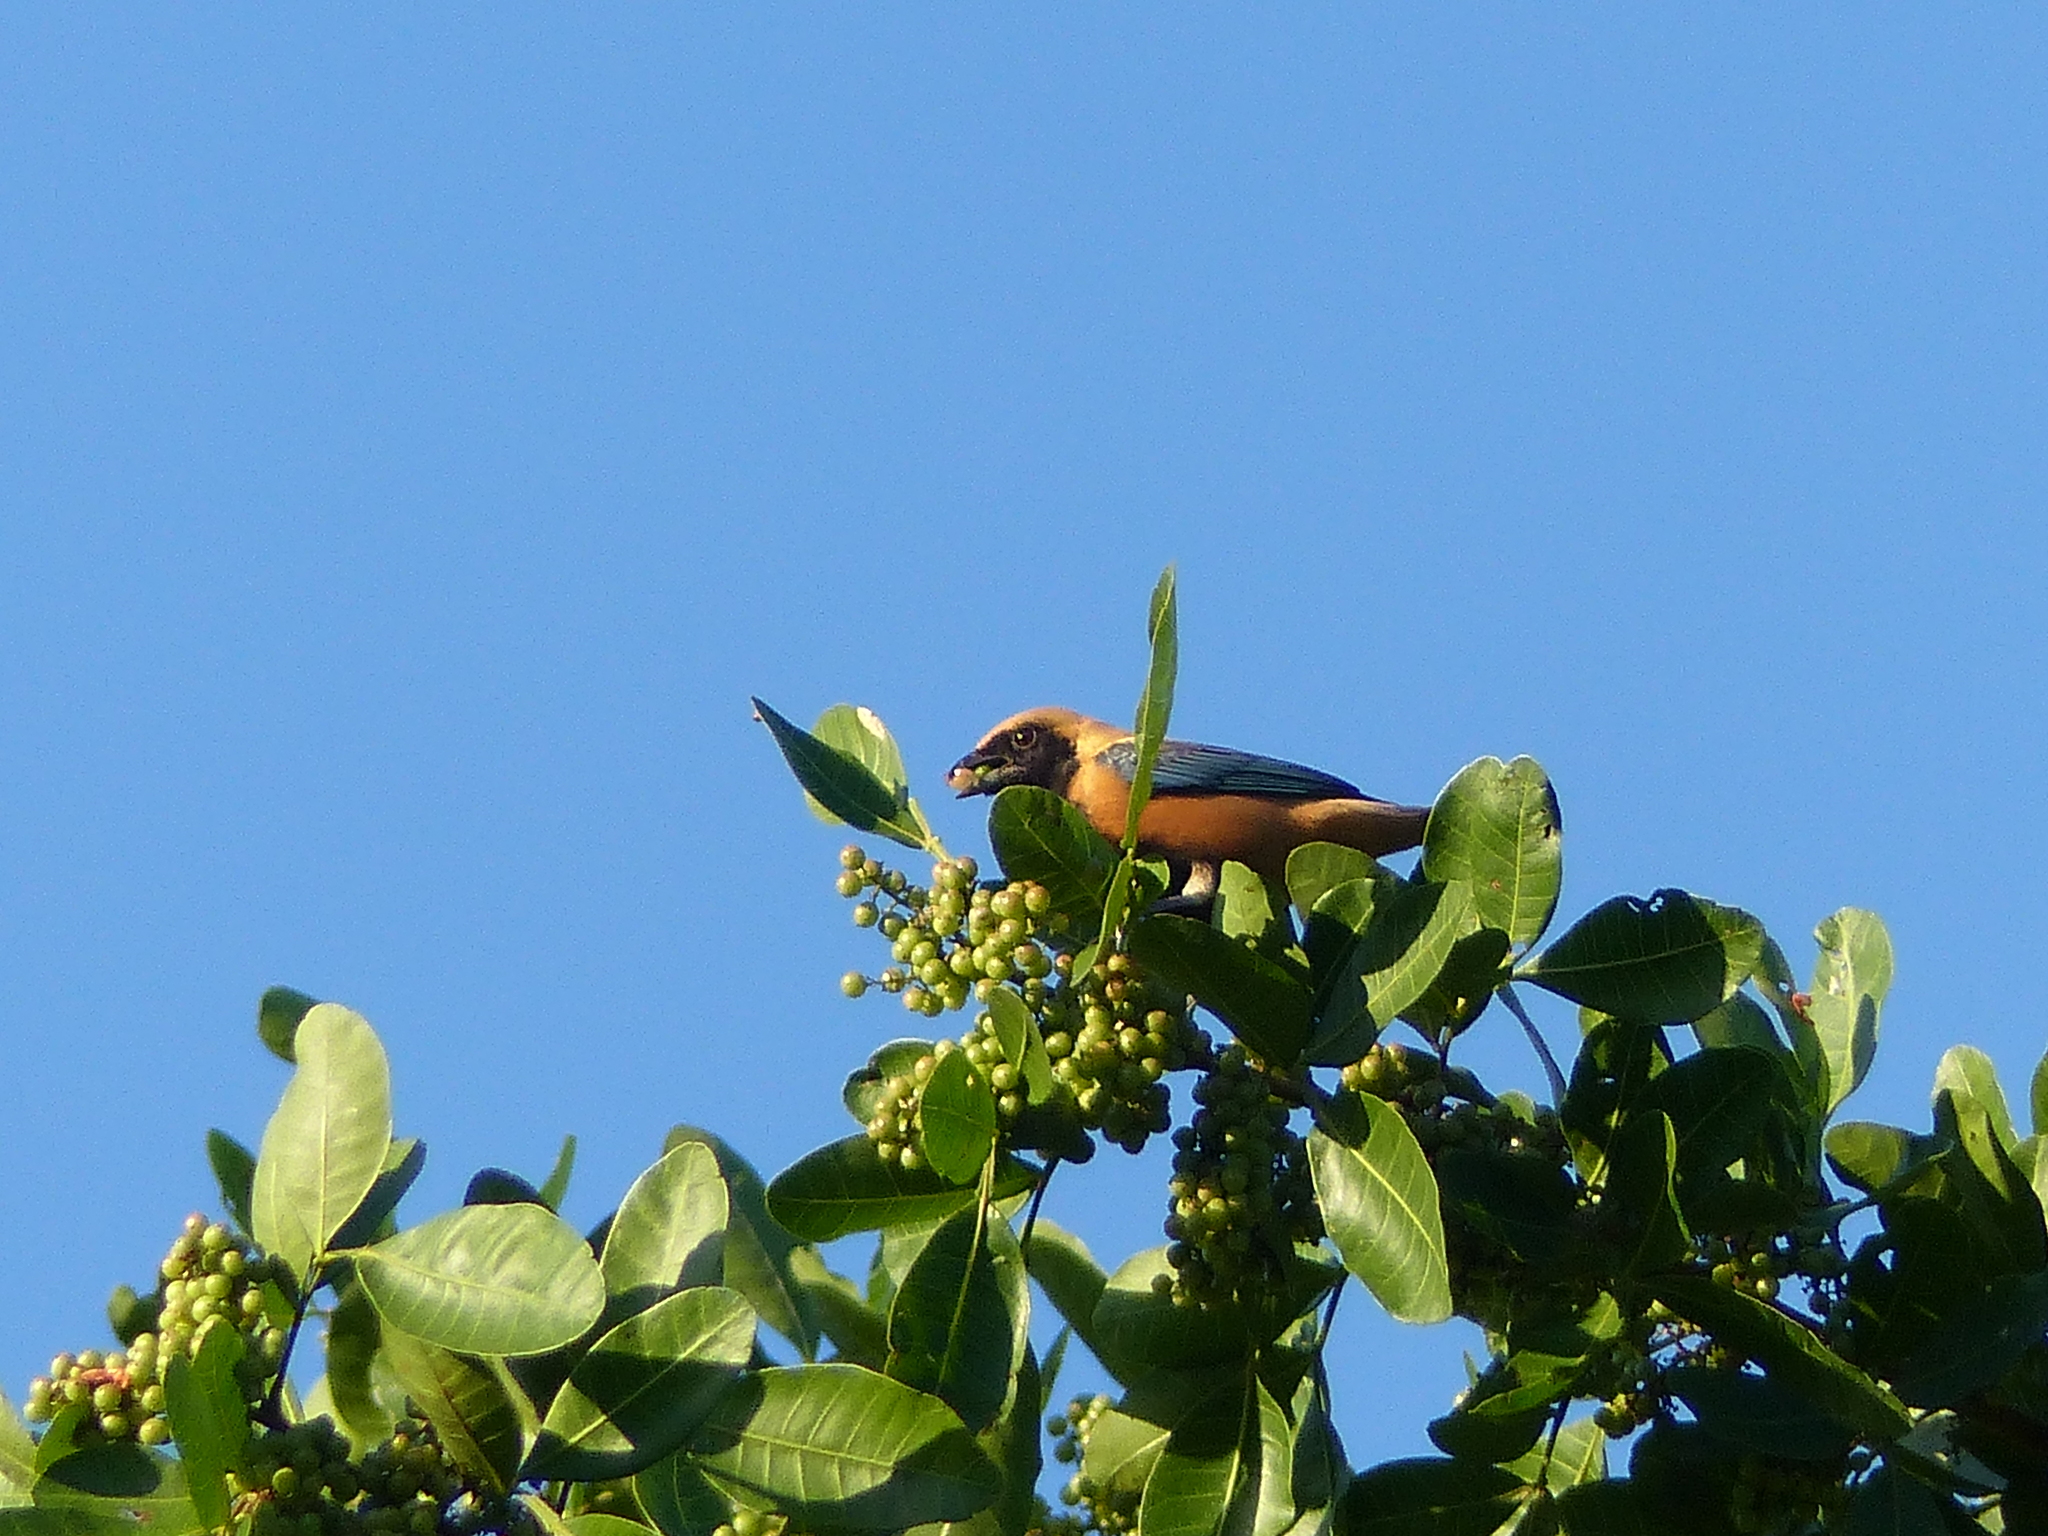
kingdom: Animalia
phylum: Chordata
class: Aves
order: Passeriformes
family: Thraupidae
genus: Stilpnia
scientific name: Stilpnia cayana
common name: Burnished-buff tanager
